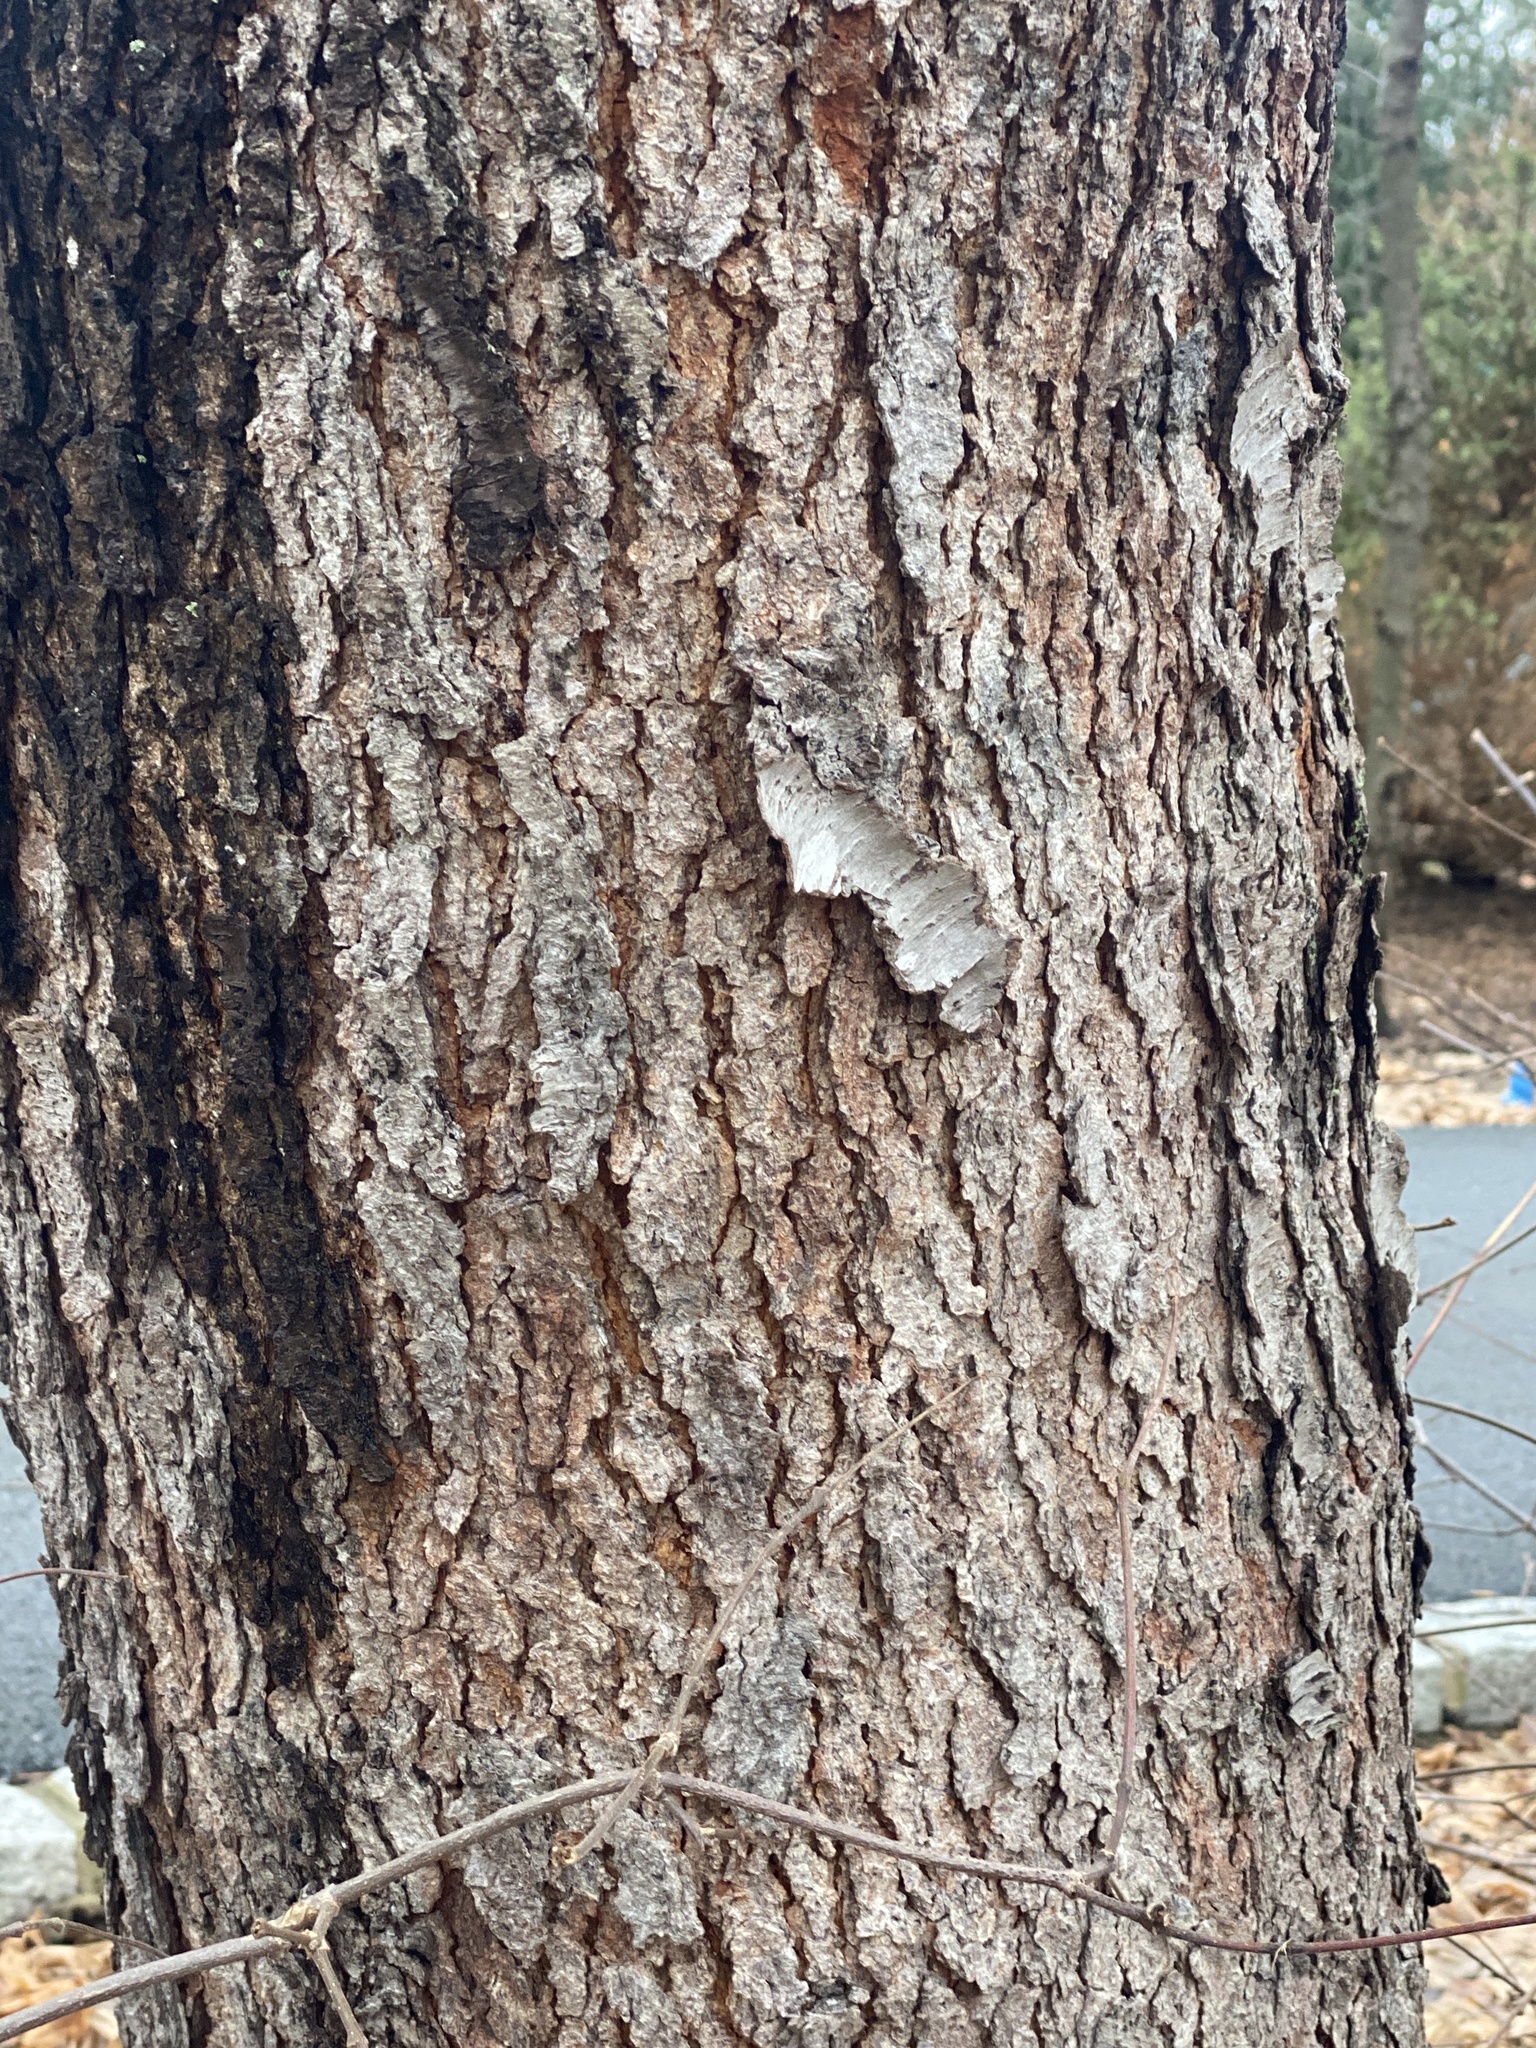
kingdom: Plantae
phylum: Tracheophyta
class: Magnoliopsida
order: Rosales
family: Rosaceae
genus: Prunus
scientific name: Prunus serotina
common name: Black cherry
